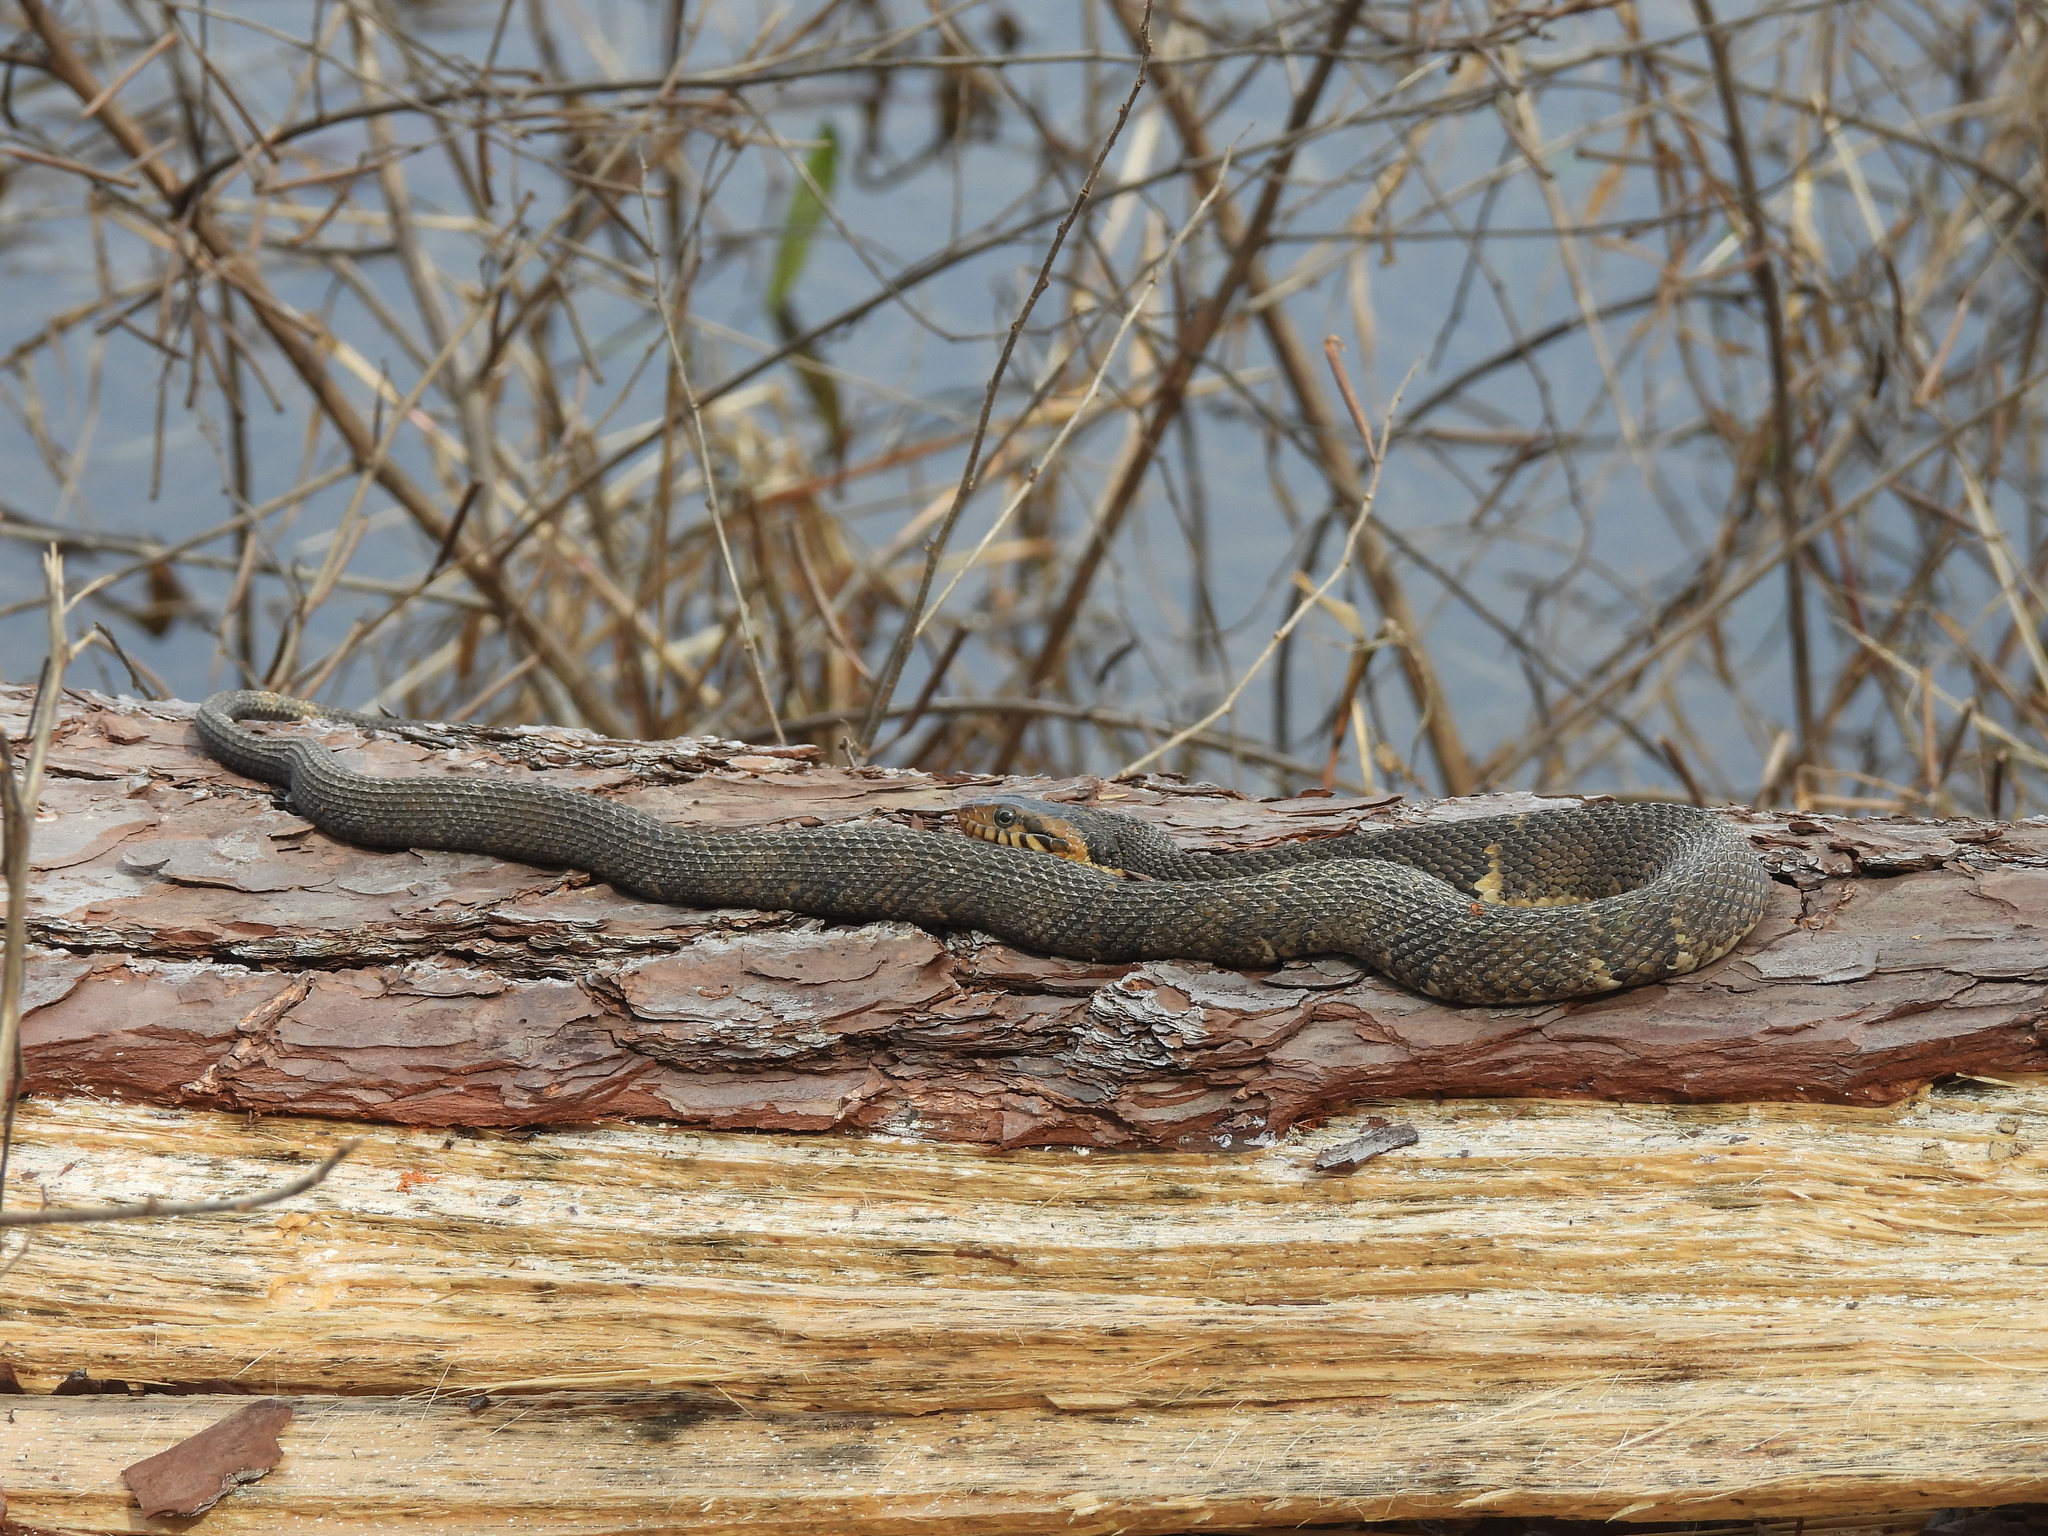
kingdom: Animalia
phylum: Chordata
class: Squamata
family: Colubridae
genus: Nerodia
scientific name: Nerodia fasciata
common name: Southern water snake
